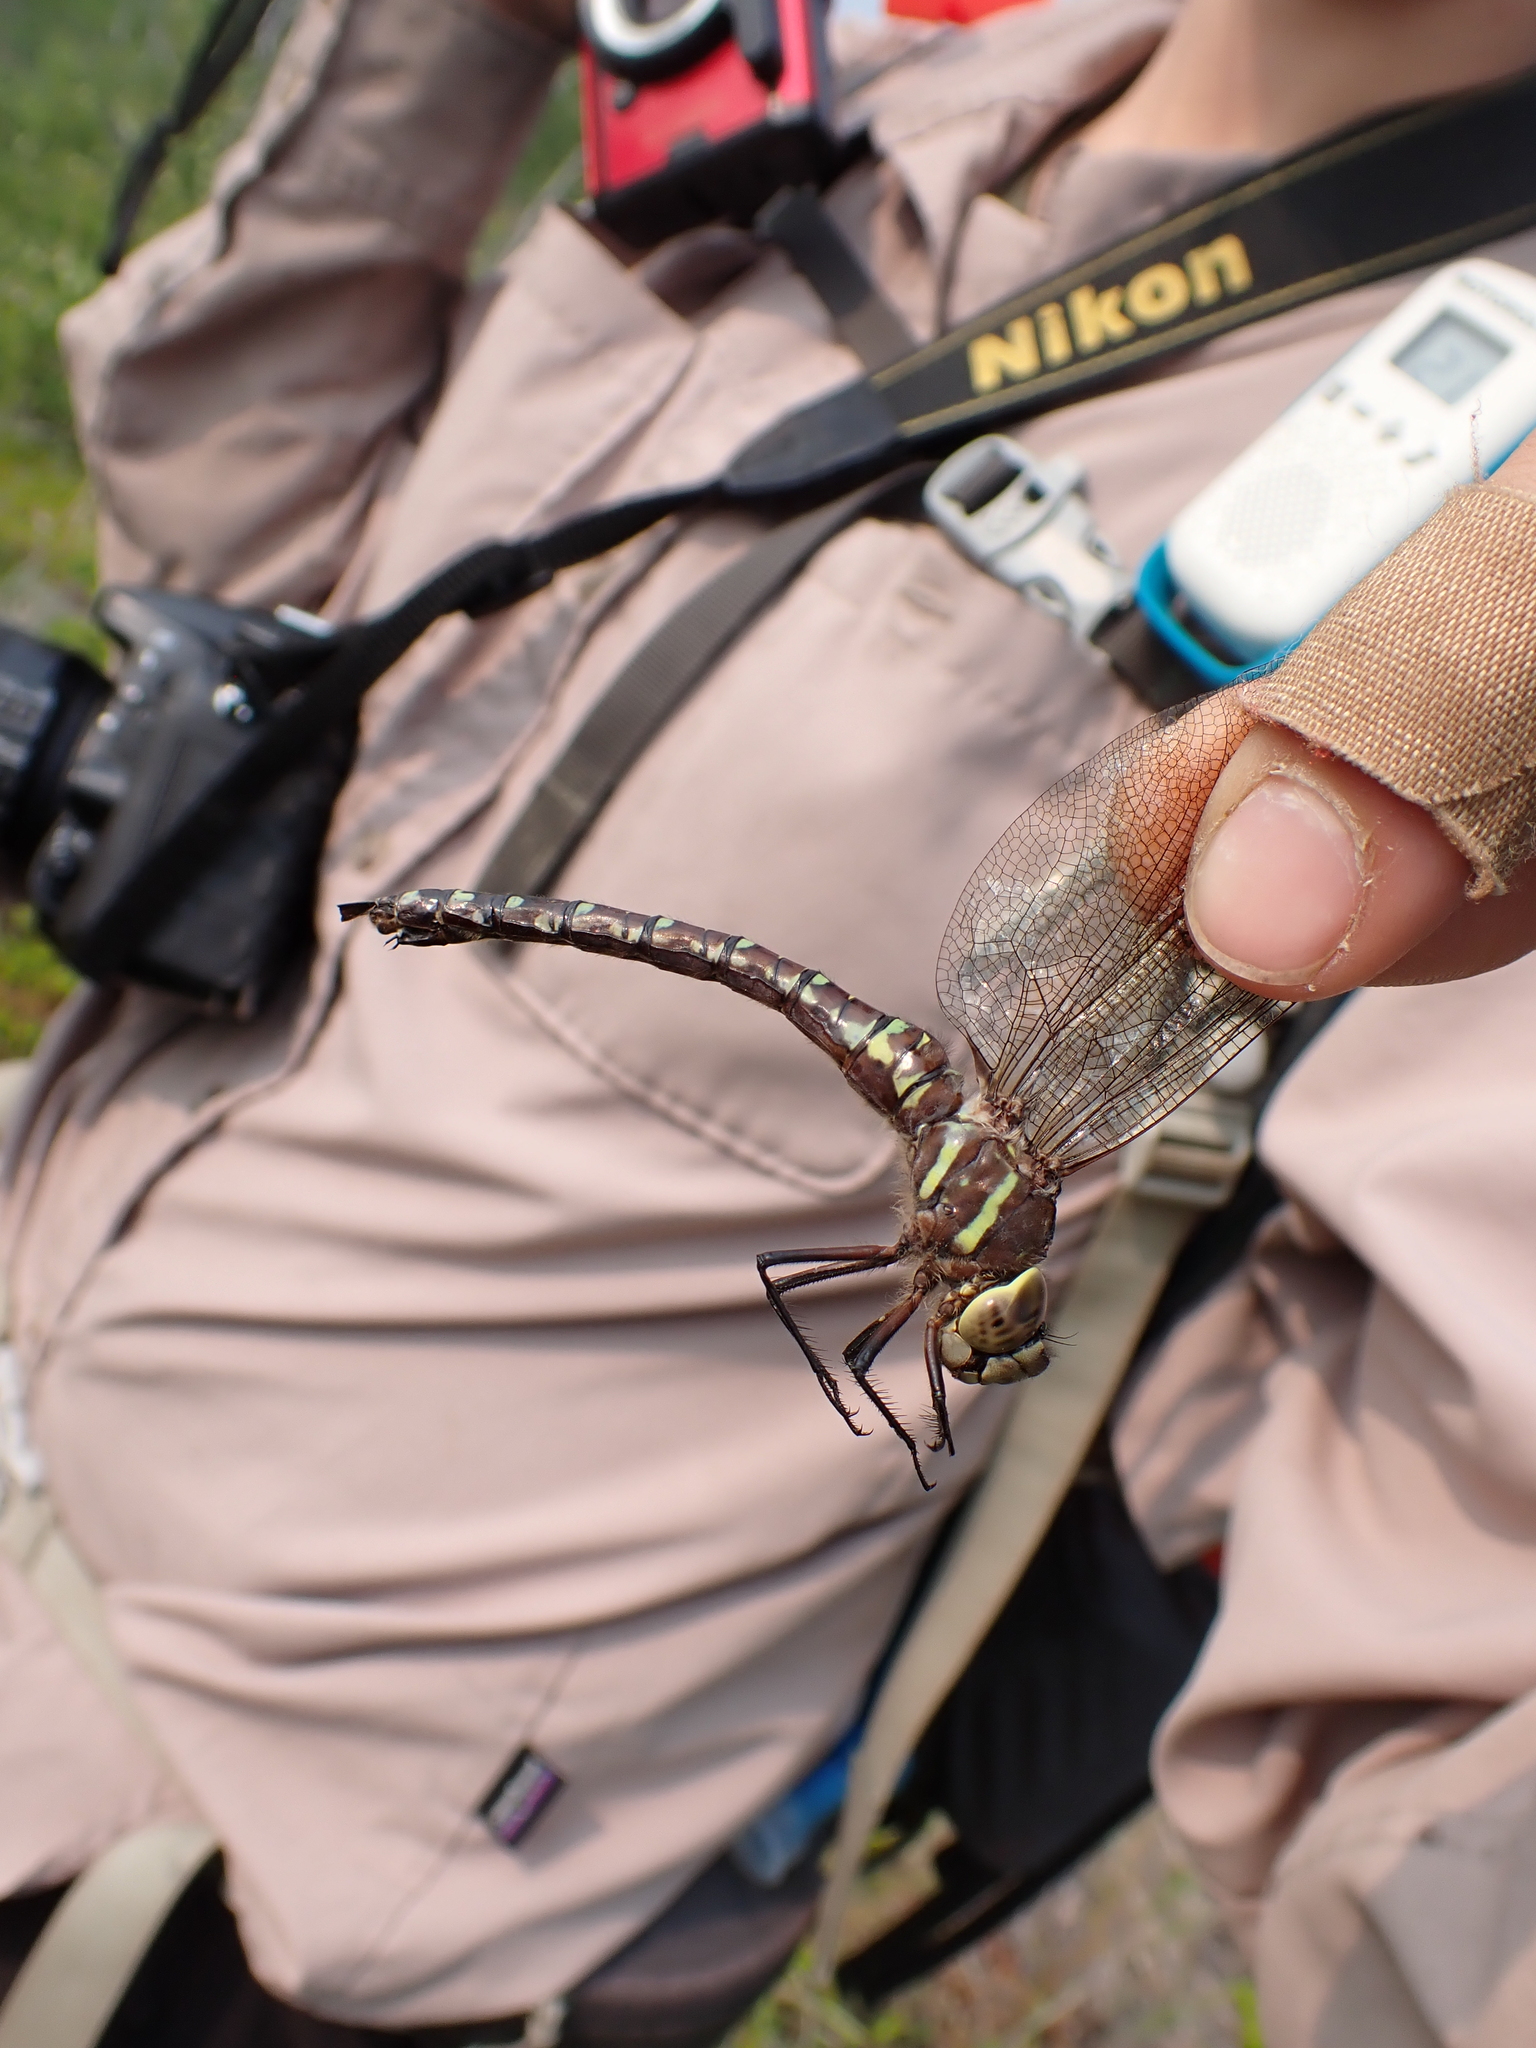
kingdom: Animalia
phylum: Arthropoda
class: Insecta
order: Odonata
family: Aeshnidae
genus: Aeshna
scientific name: Aeshna palmata
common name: Paddle-tailed darner
